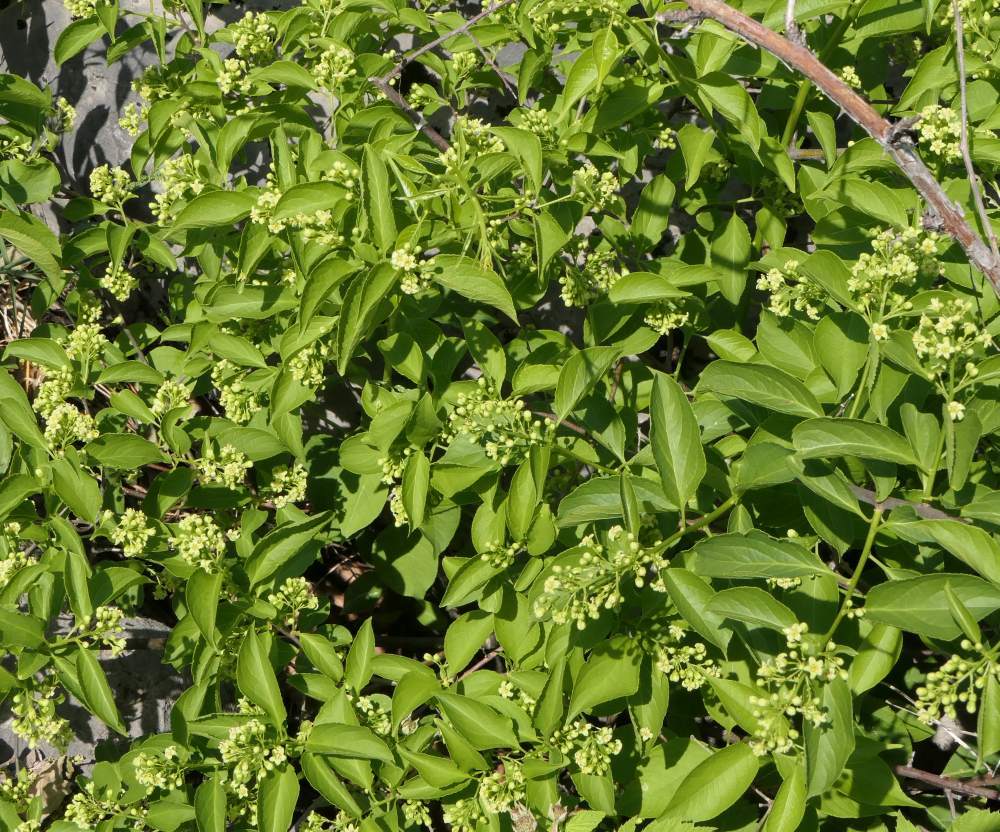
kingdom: Plantae
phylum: Tracheophyta
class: Magnoliopsida
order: Celastrales
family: Celastraceae
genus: Celastrus
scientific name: Celastrus scandens
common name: American bittersweet
